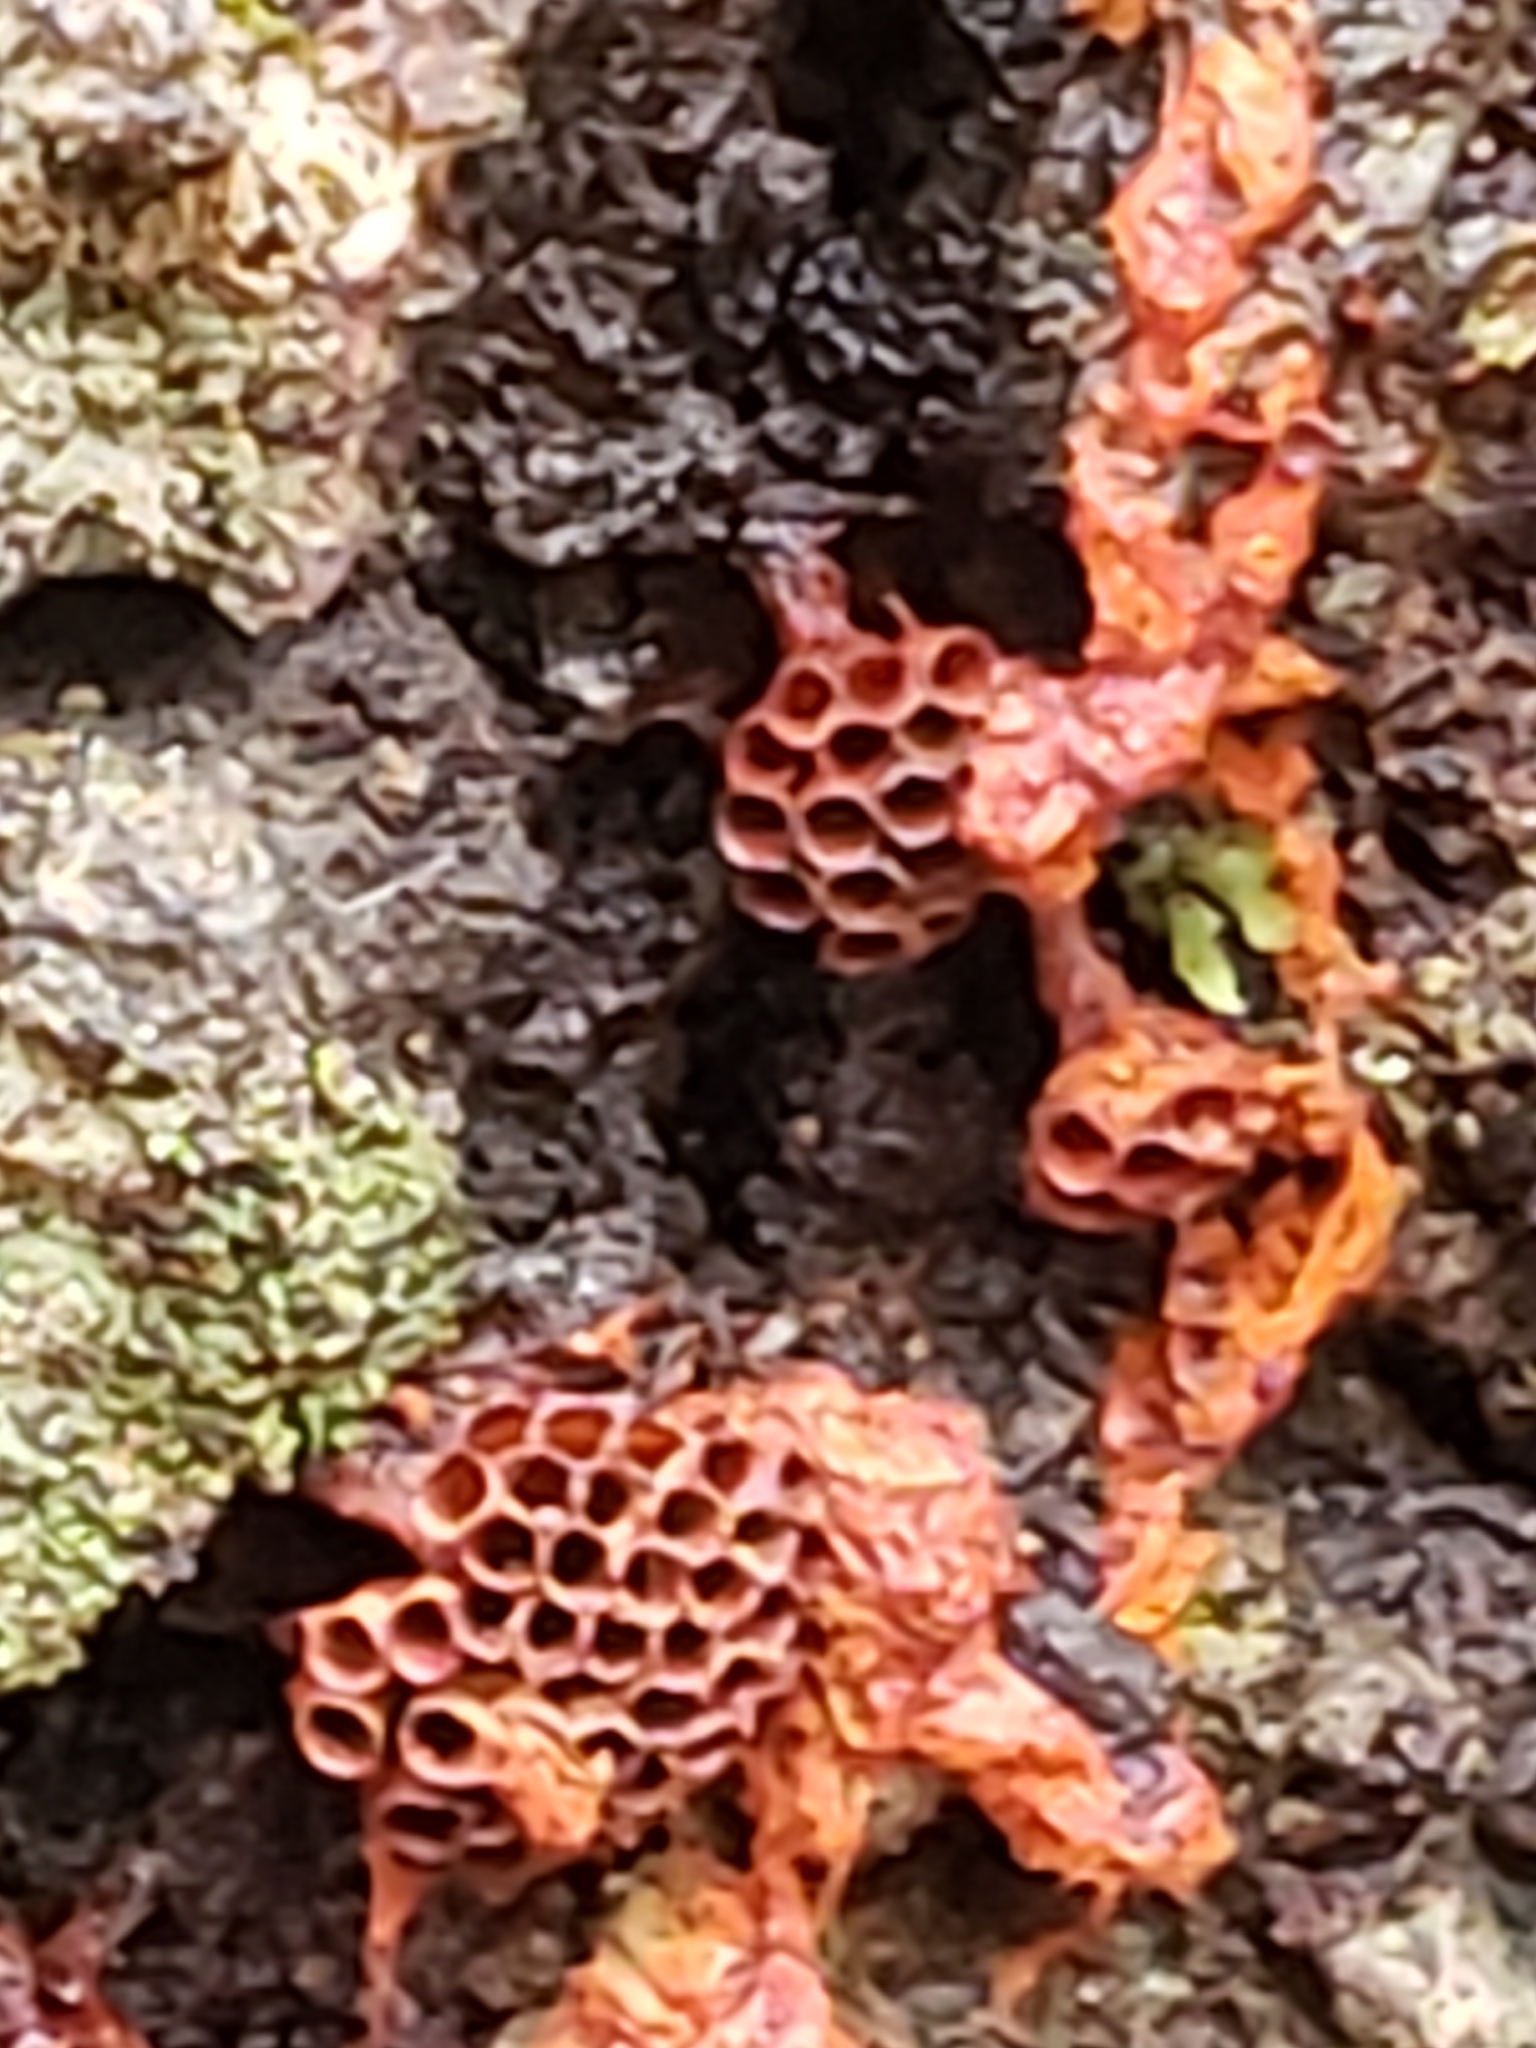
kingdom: Protozoa
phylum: Mycetozoa
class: Myxomycetes
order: Trichiales
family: Trichiaceae
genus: Metatrichia
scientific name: Metatrichia vesparia
